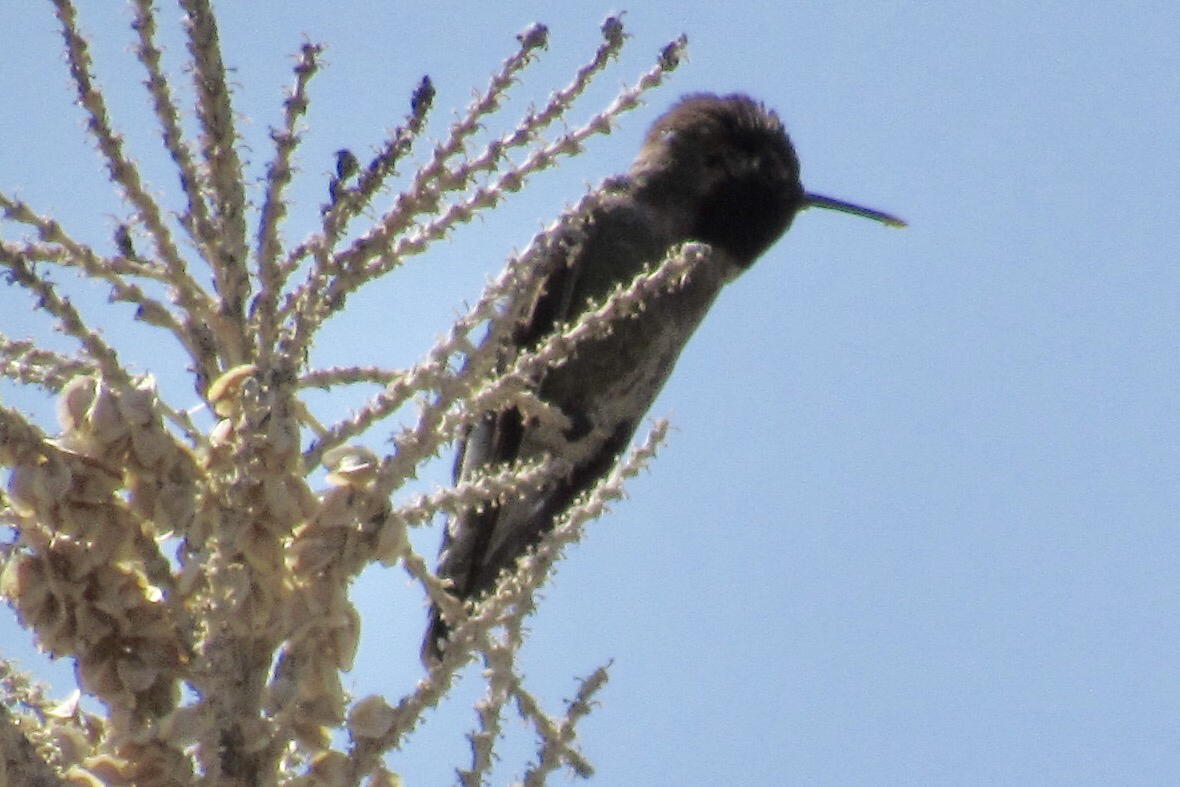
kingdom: Animalia
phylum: Chordata
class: Aves
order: Apodiformes
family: Trochilidae
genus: Calypte
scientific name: Calypte anna
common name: Anna's hummingbird
